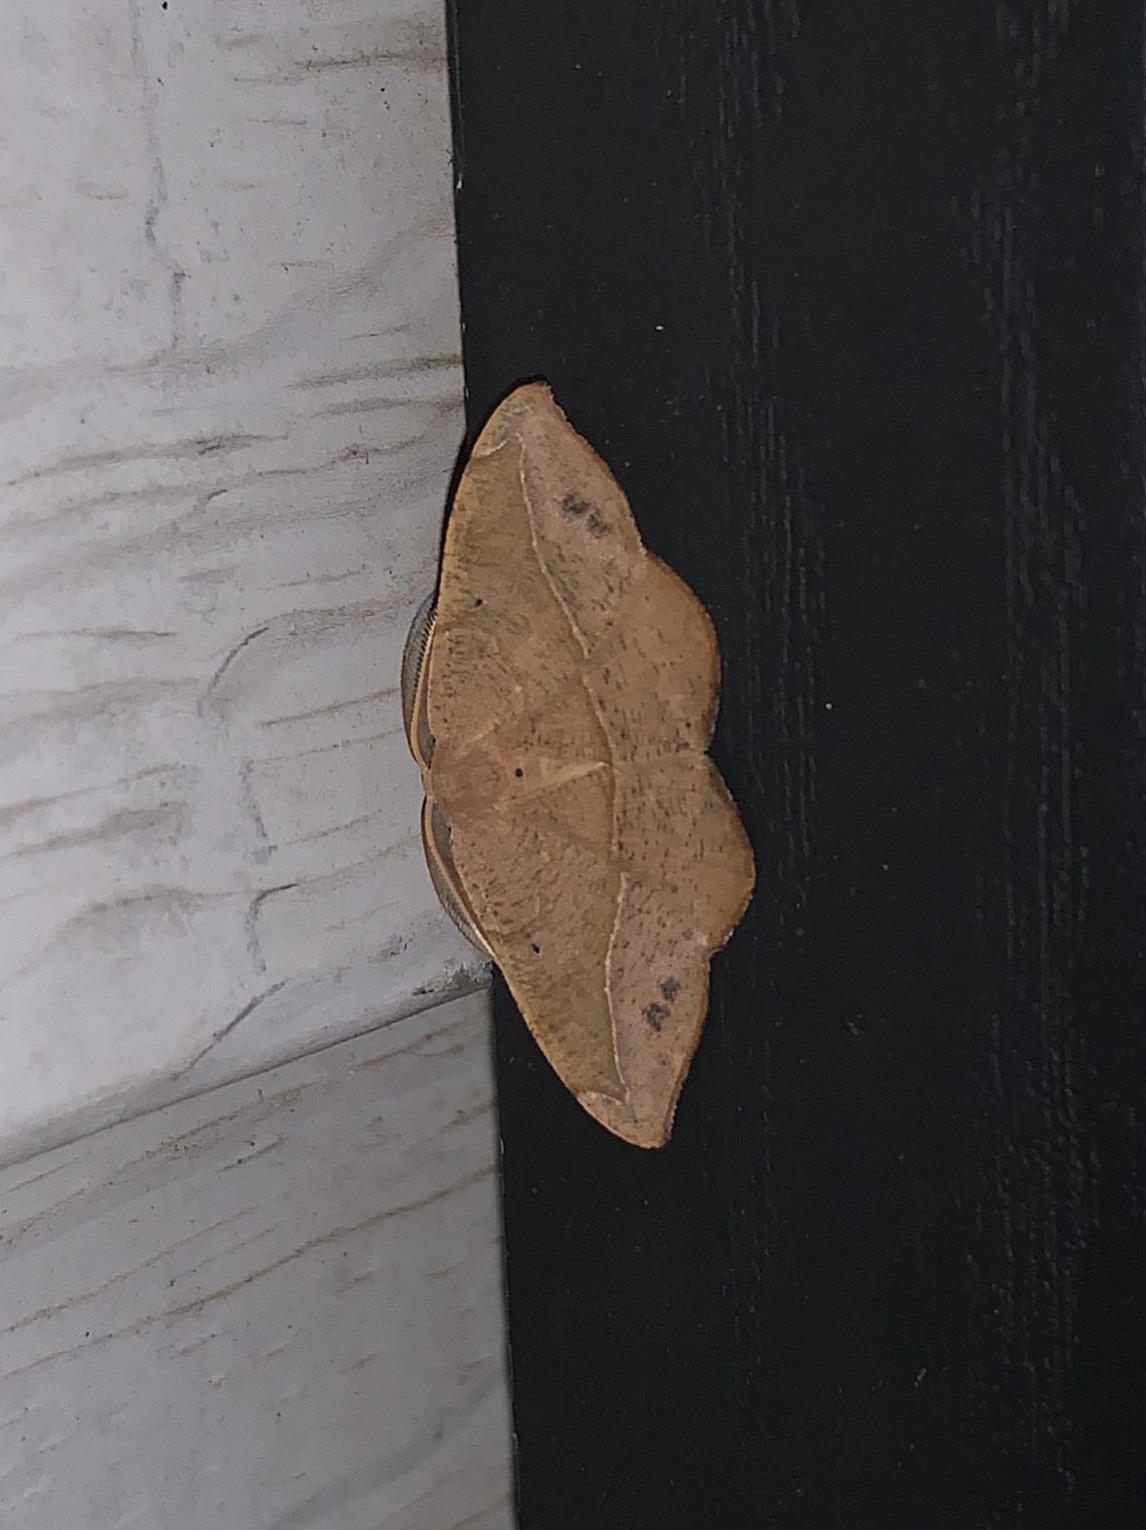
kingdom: Animalia
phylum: Arthropoda
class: Insecta
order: Lepidoptera
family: Geometridae
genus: Patalene
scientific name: Patalene olyzonaria
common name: Juniper geometer moth
